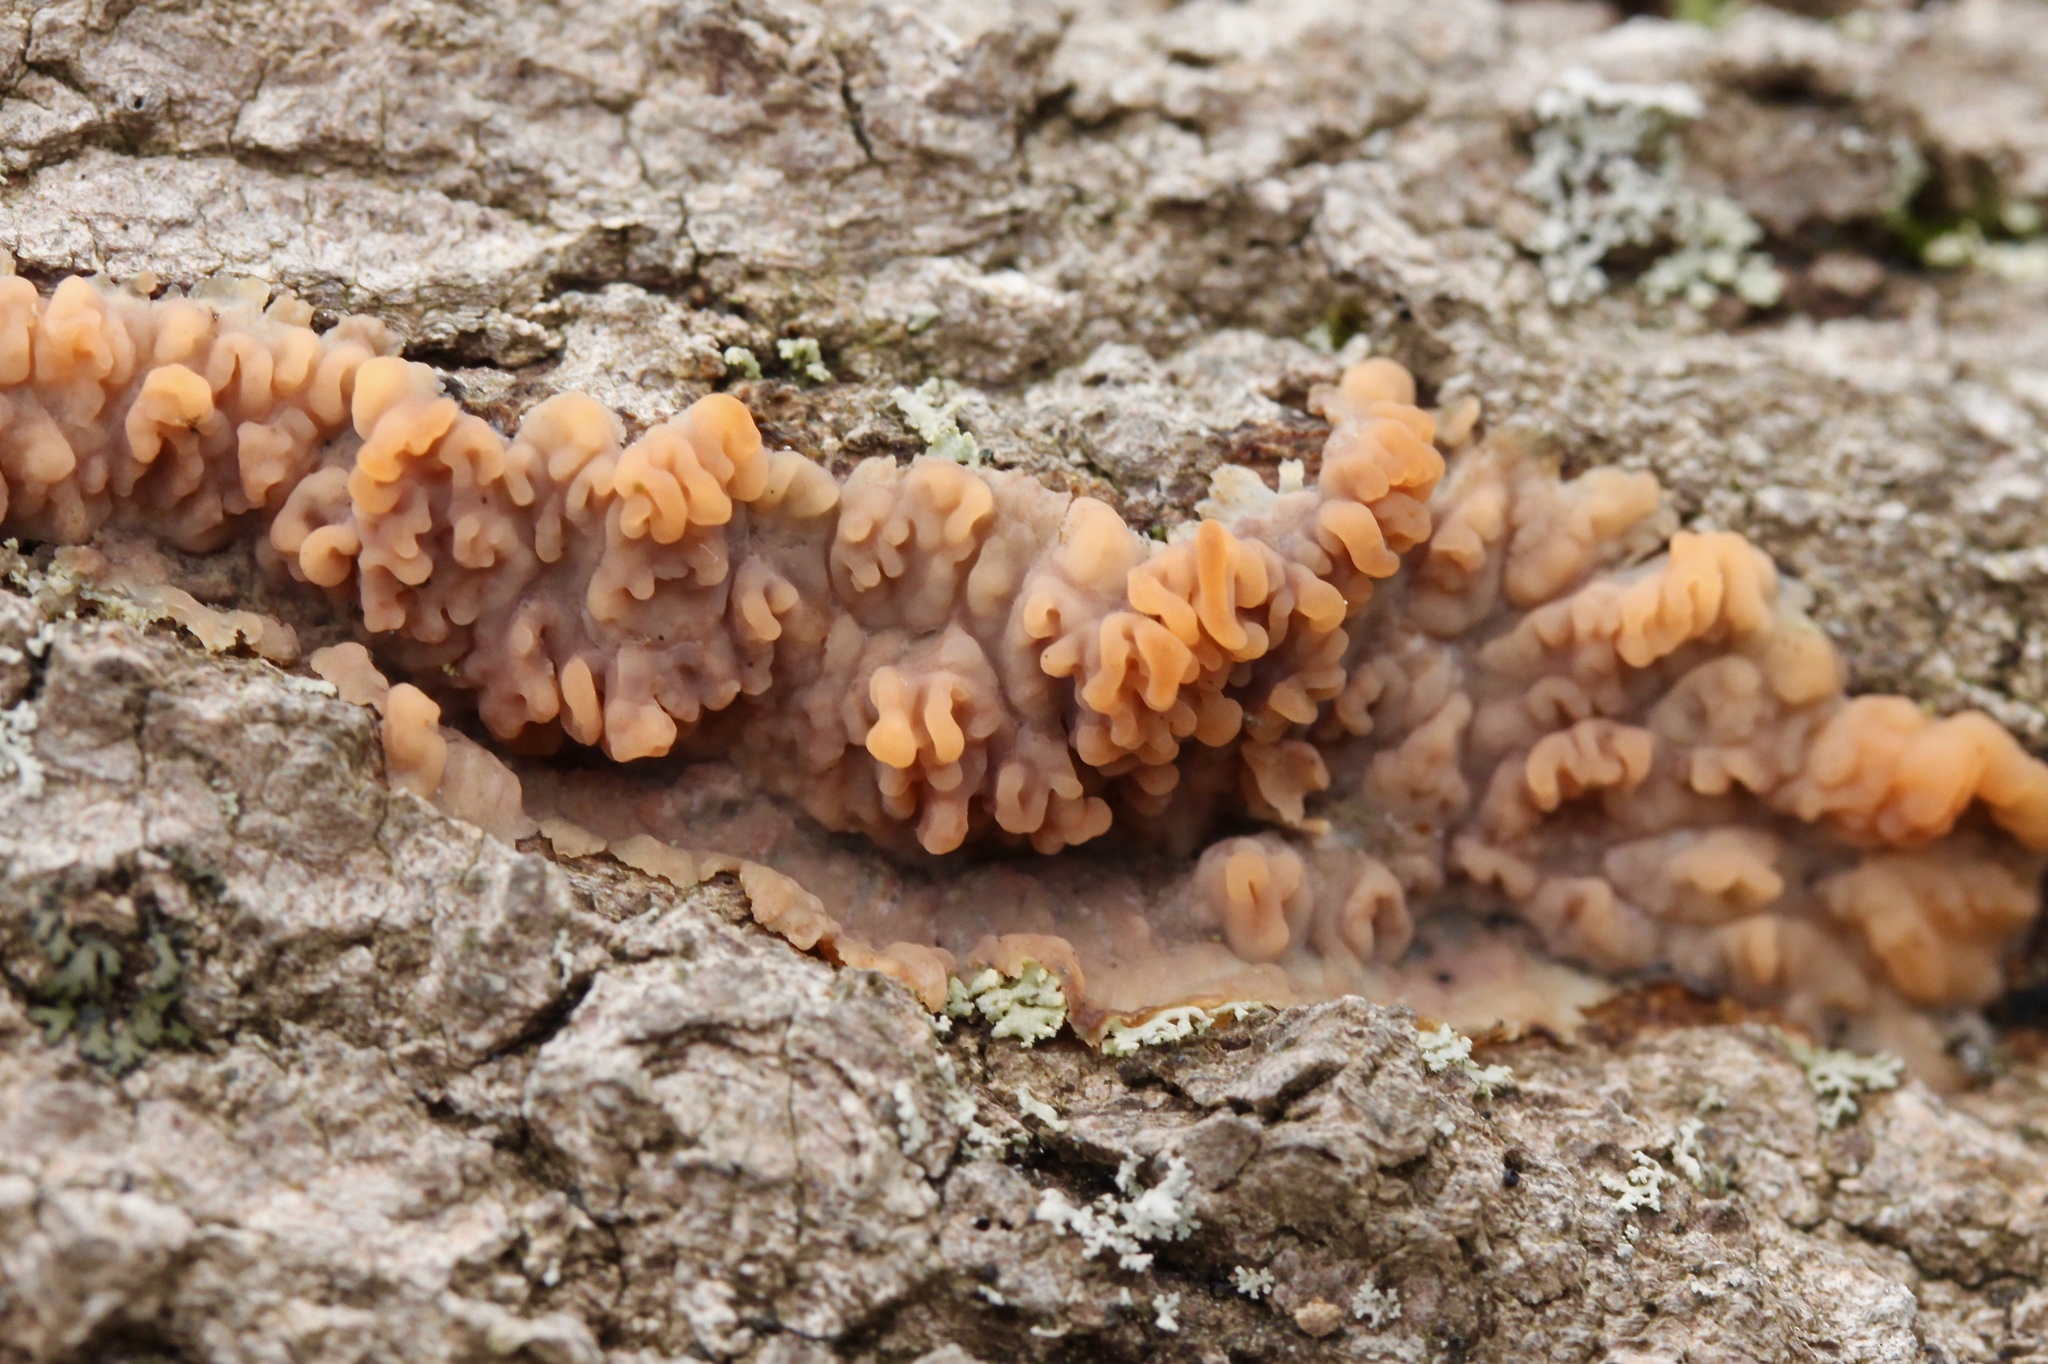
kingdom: Fungi
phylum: Basidiomycota
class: Agaricomycetes
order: Polyporales
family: Meruliaceae
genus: Phlebia
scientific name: Phlebia radiata
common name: Wrinkled crust
